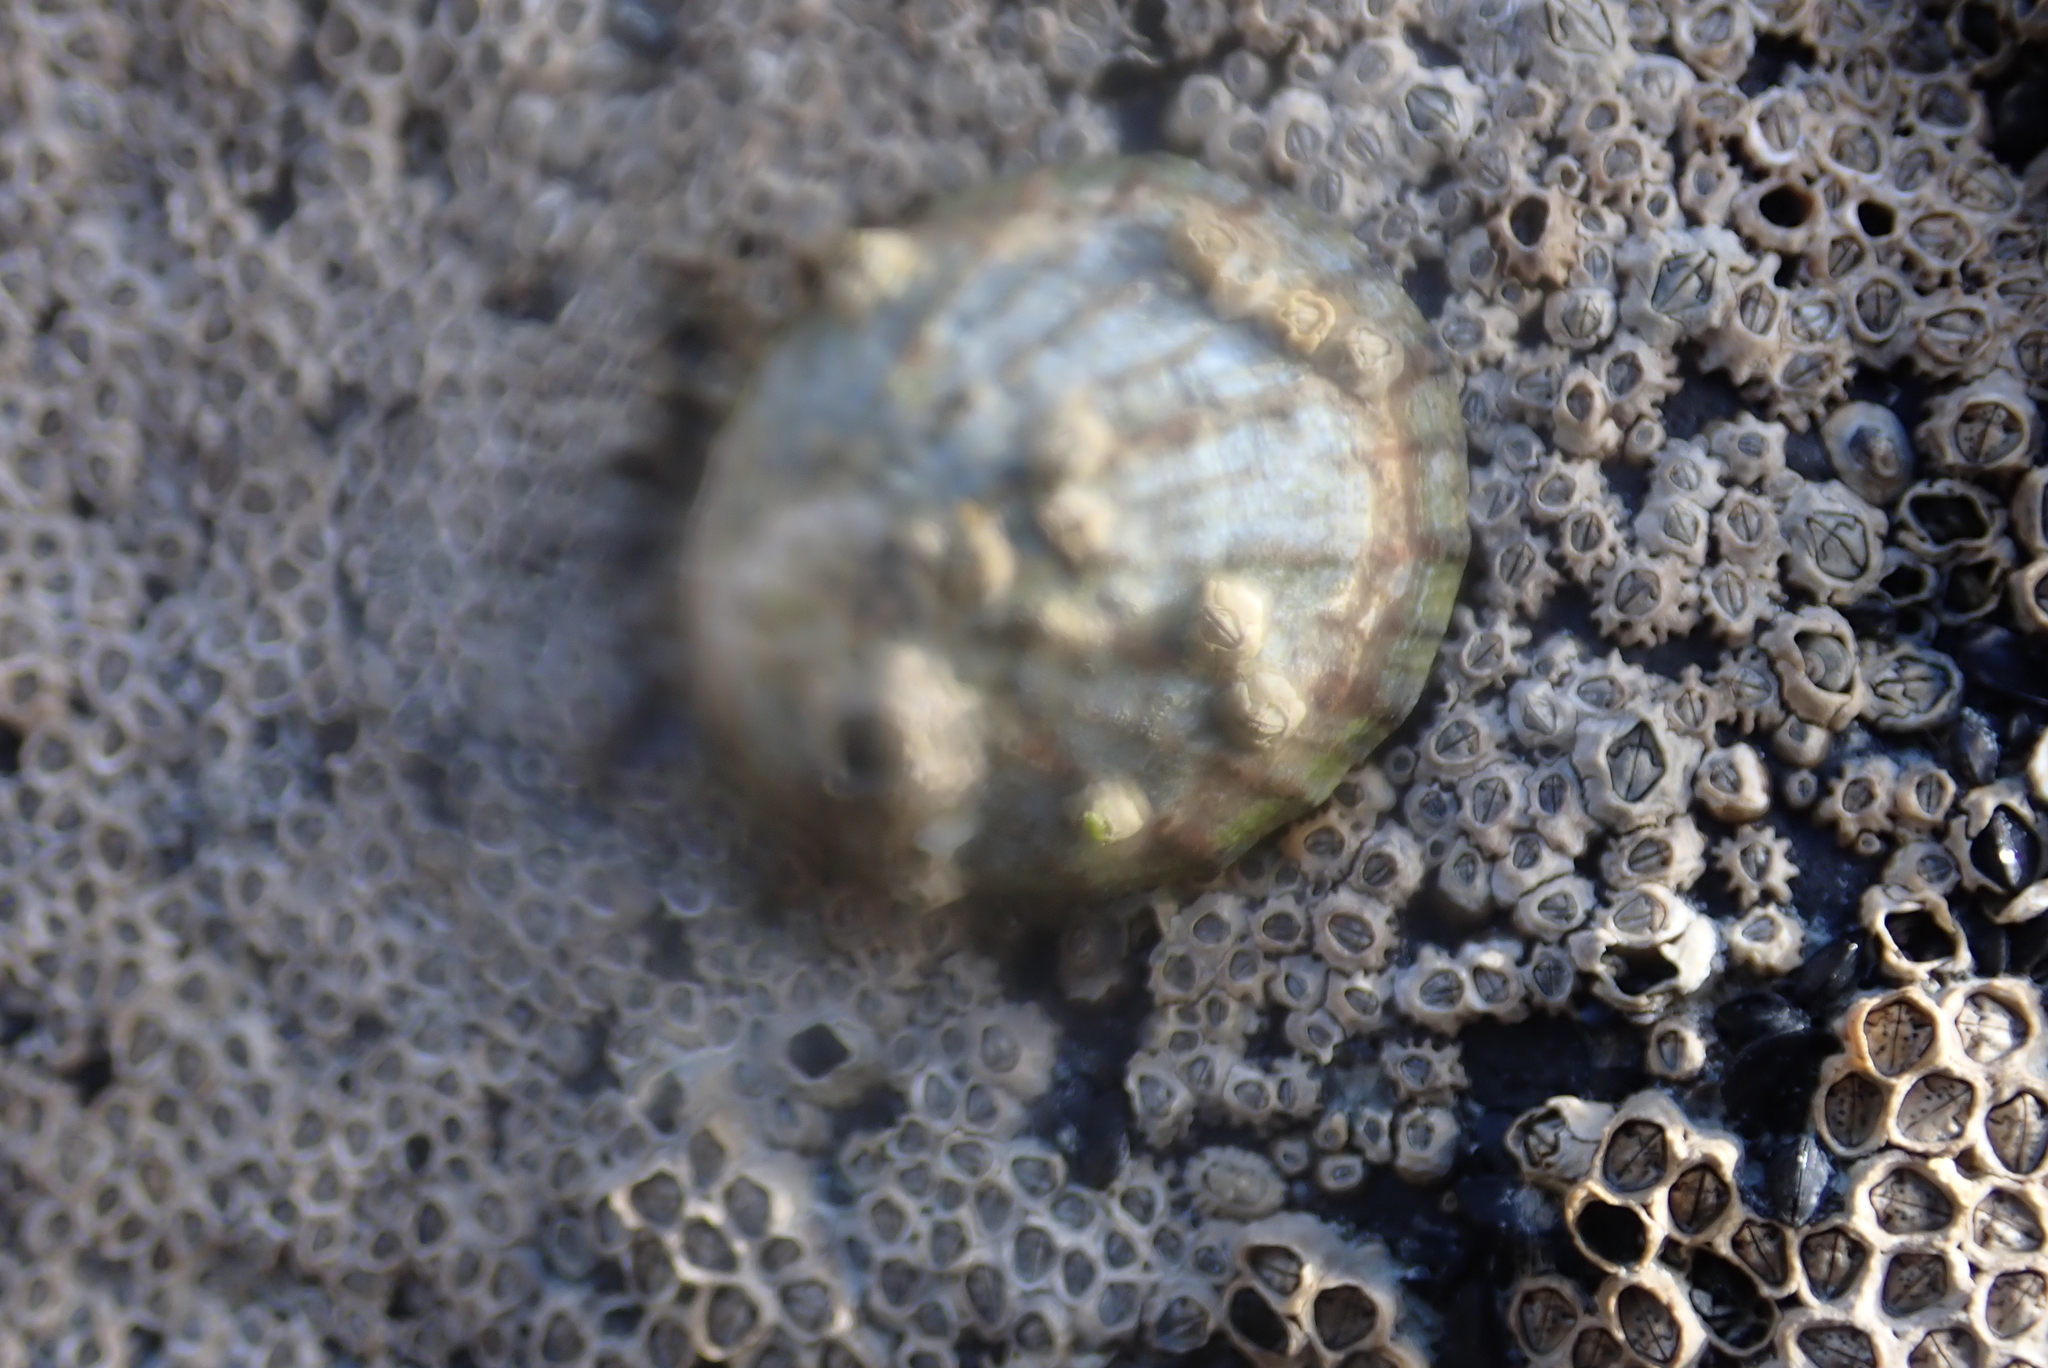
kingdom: Animalia
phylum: Mollusca
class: Gastropoda
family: Nacellidae
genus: Cellana
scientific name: Cellana radians
